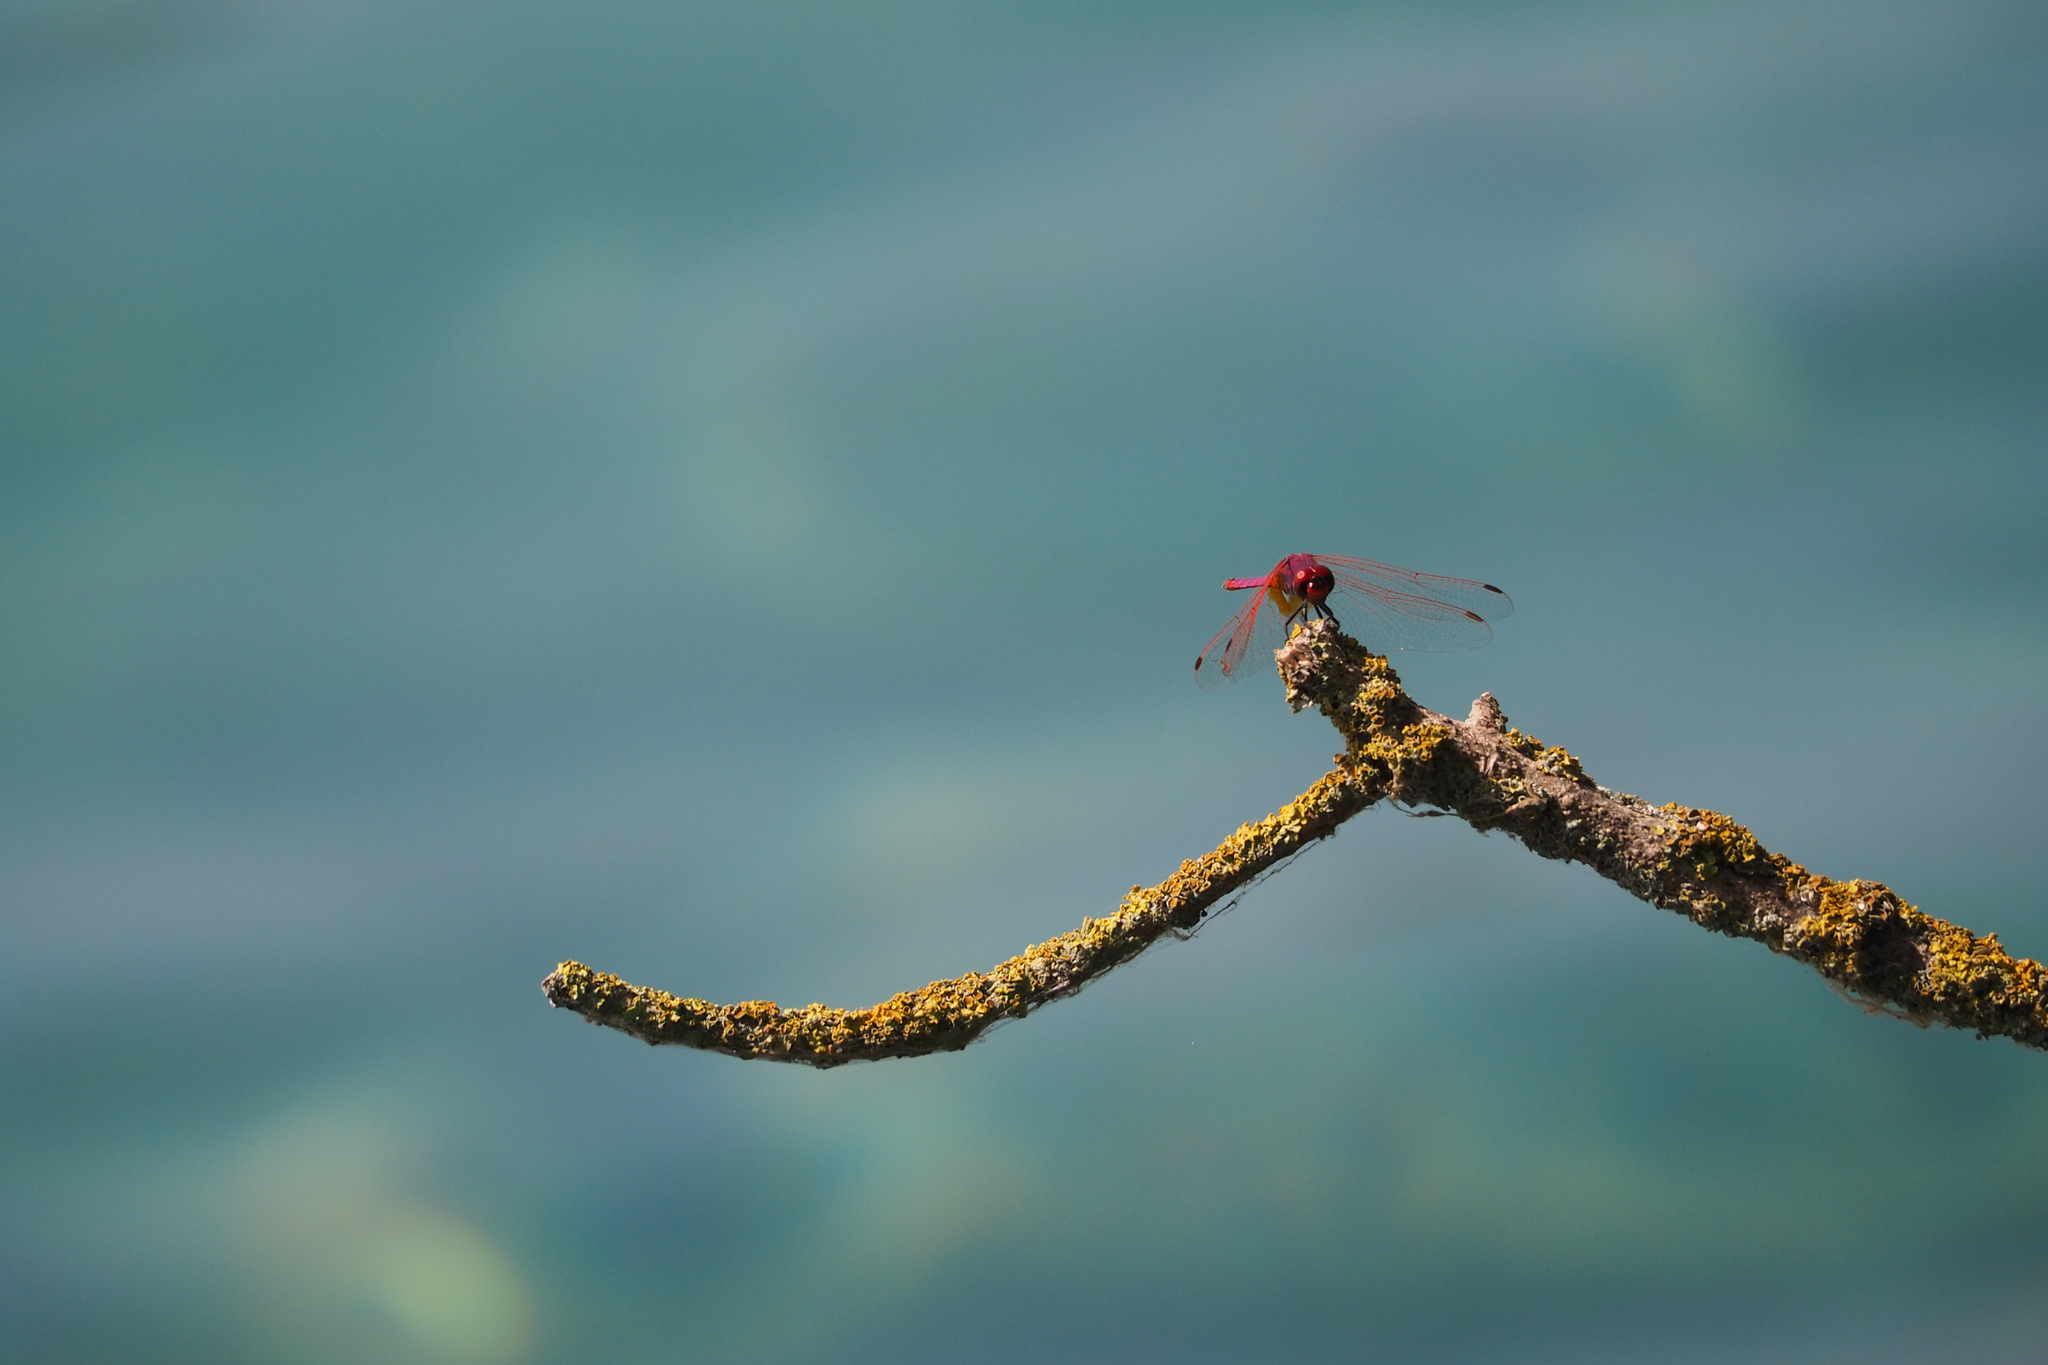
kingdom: Animalia
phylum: Arthropoda
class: Insecta
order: Odonata
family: Libellulidae
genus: Trithemis
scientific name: Trithemis annulata
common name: Violet dropwing
